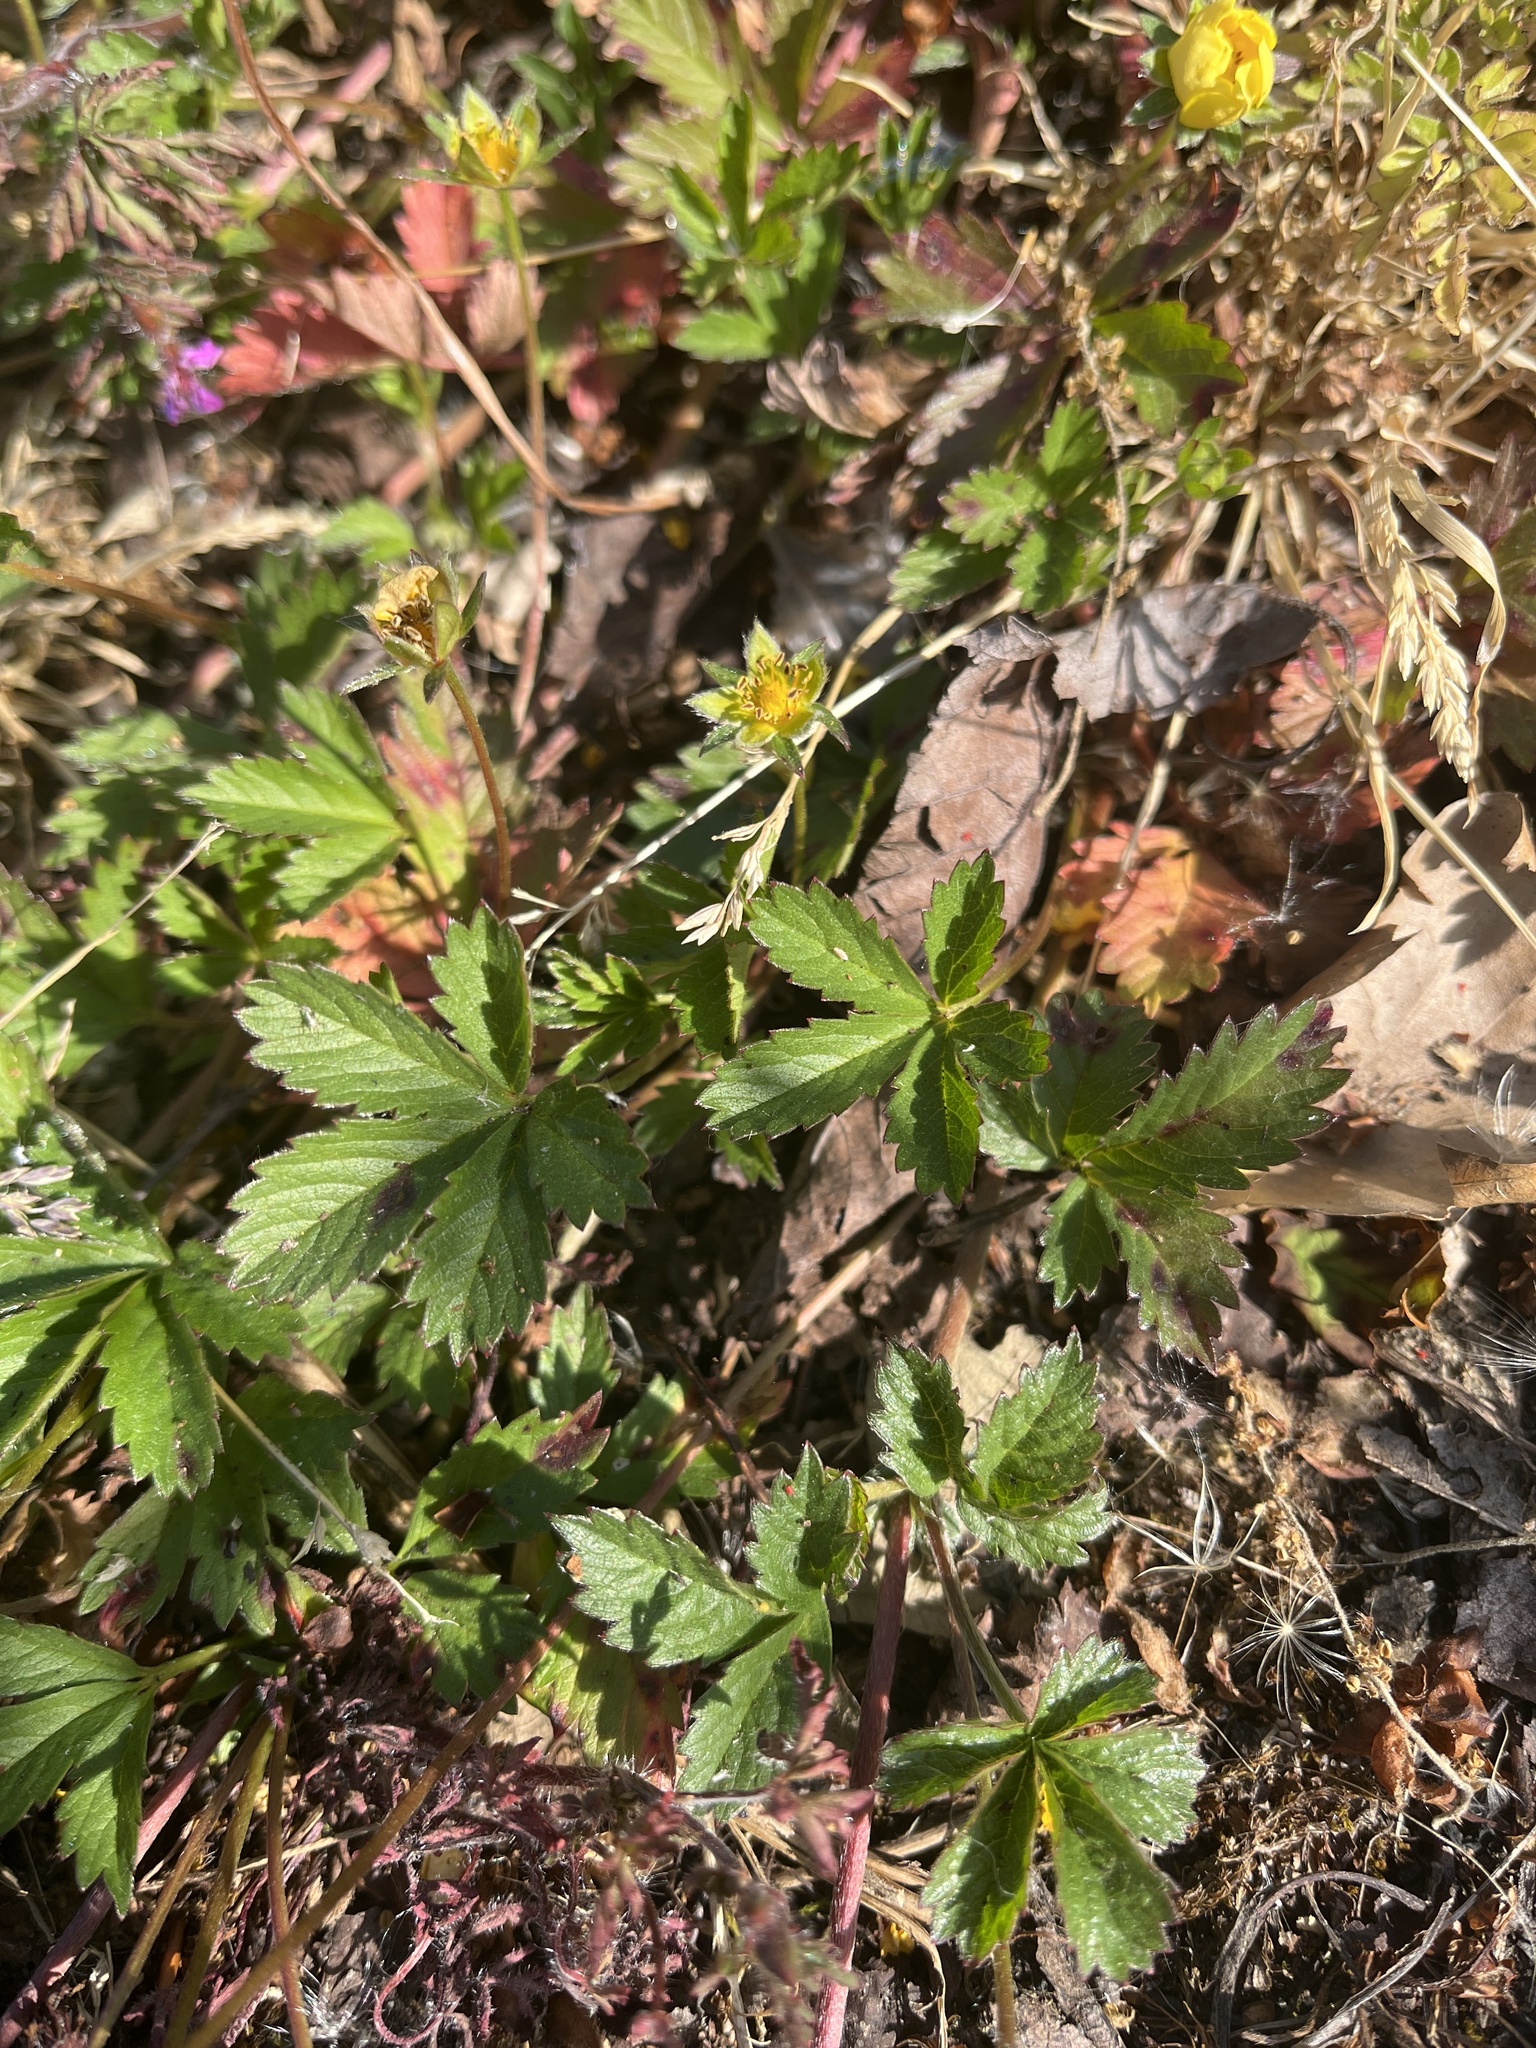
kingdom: Plantae
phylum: Tracheophyta
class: Magnoliopsida
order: Rosales
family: Rosaceae
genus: Potentilla
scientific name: Potentilla reptans
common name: Creeping cinquefoil
